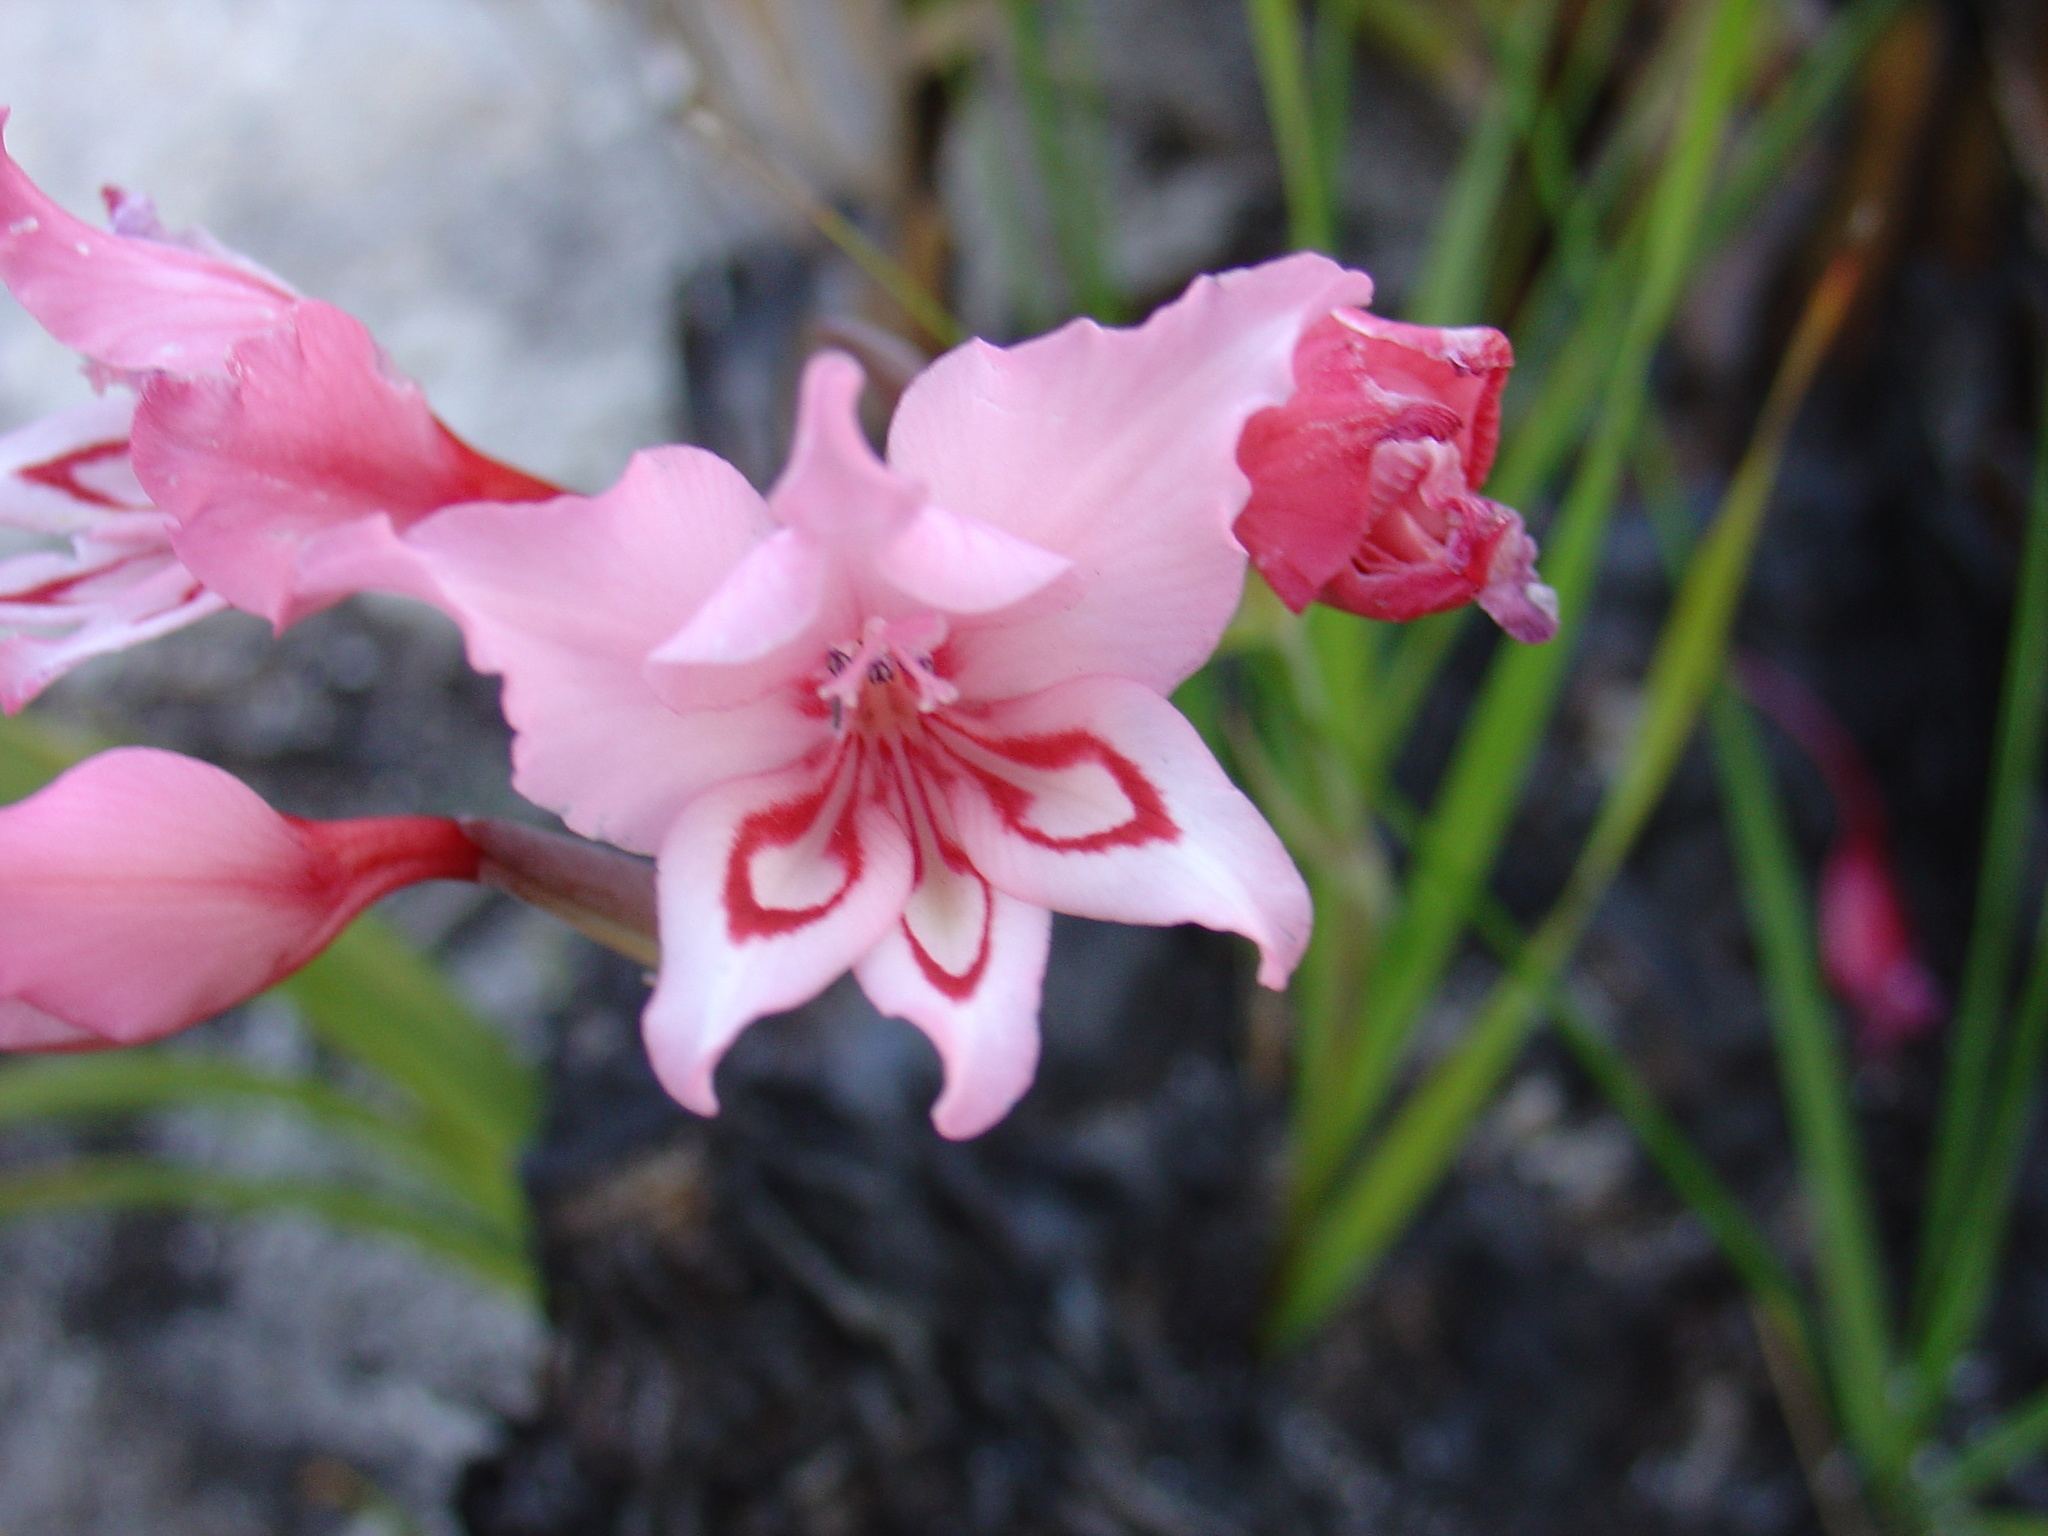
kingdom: Plantae
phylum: Tracheophyta
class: Liliopsida
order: Asparagales
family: Iridaceae
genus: Gladiolus
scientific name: Gladiolus carneus
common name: Painted-lady
